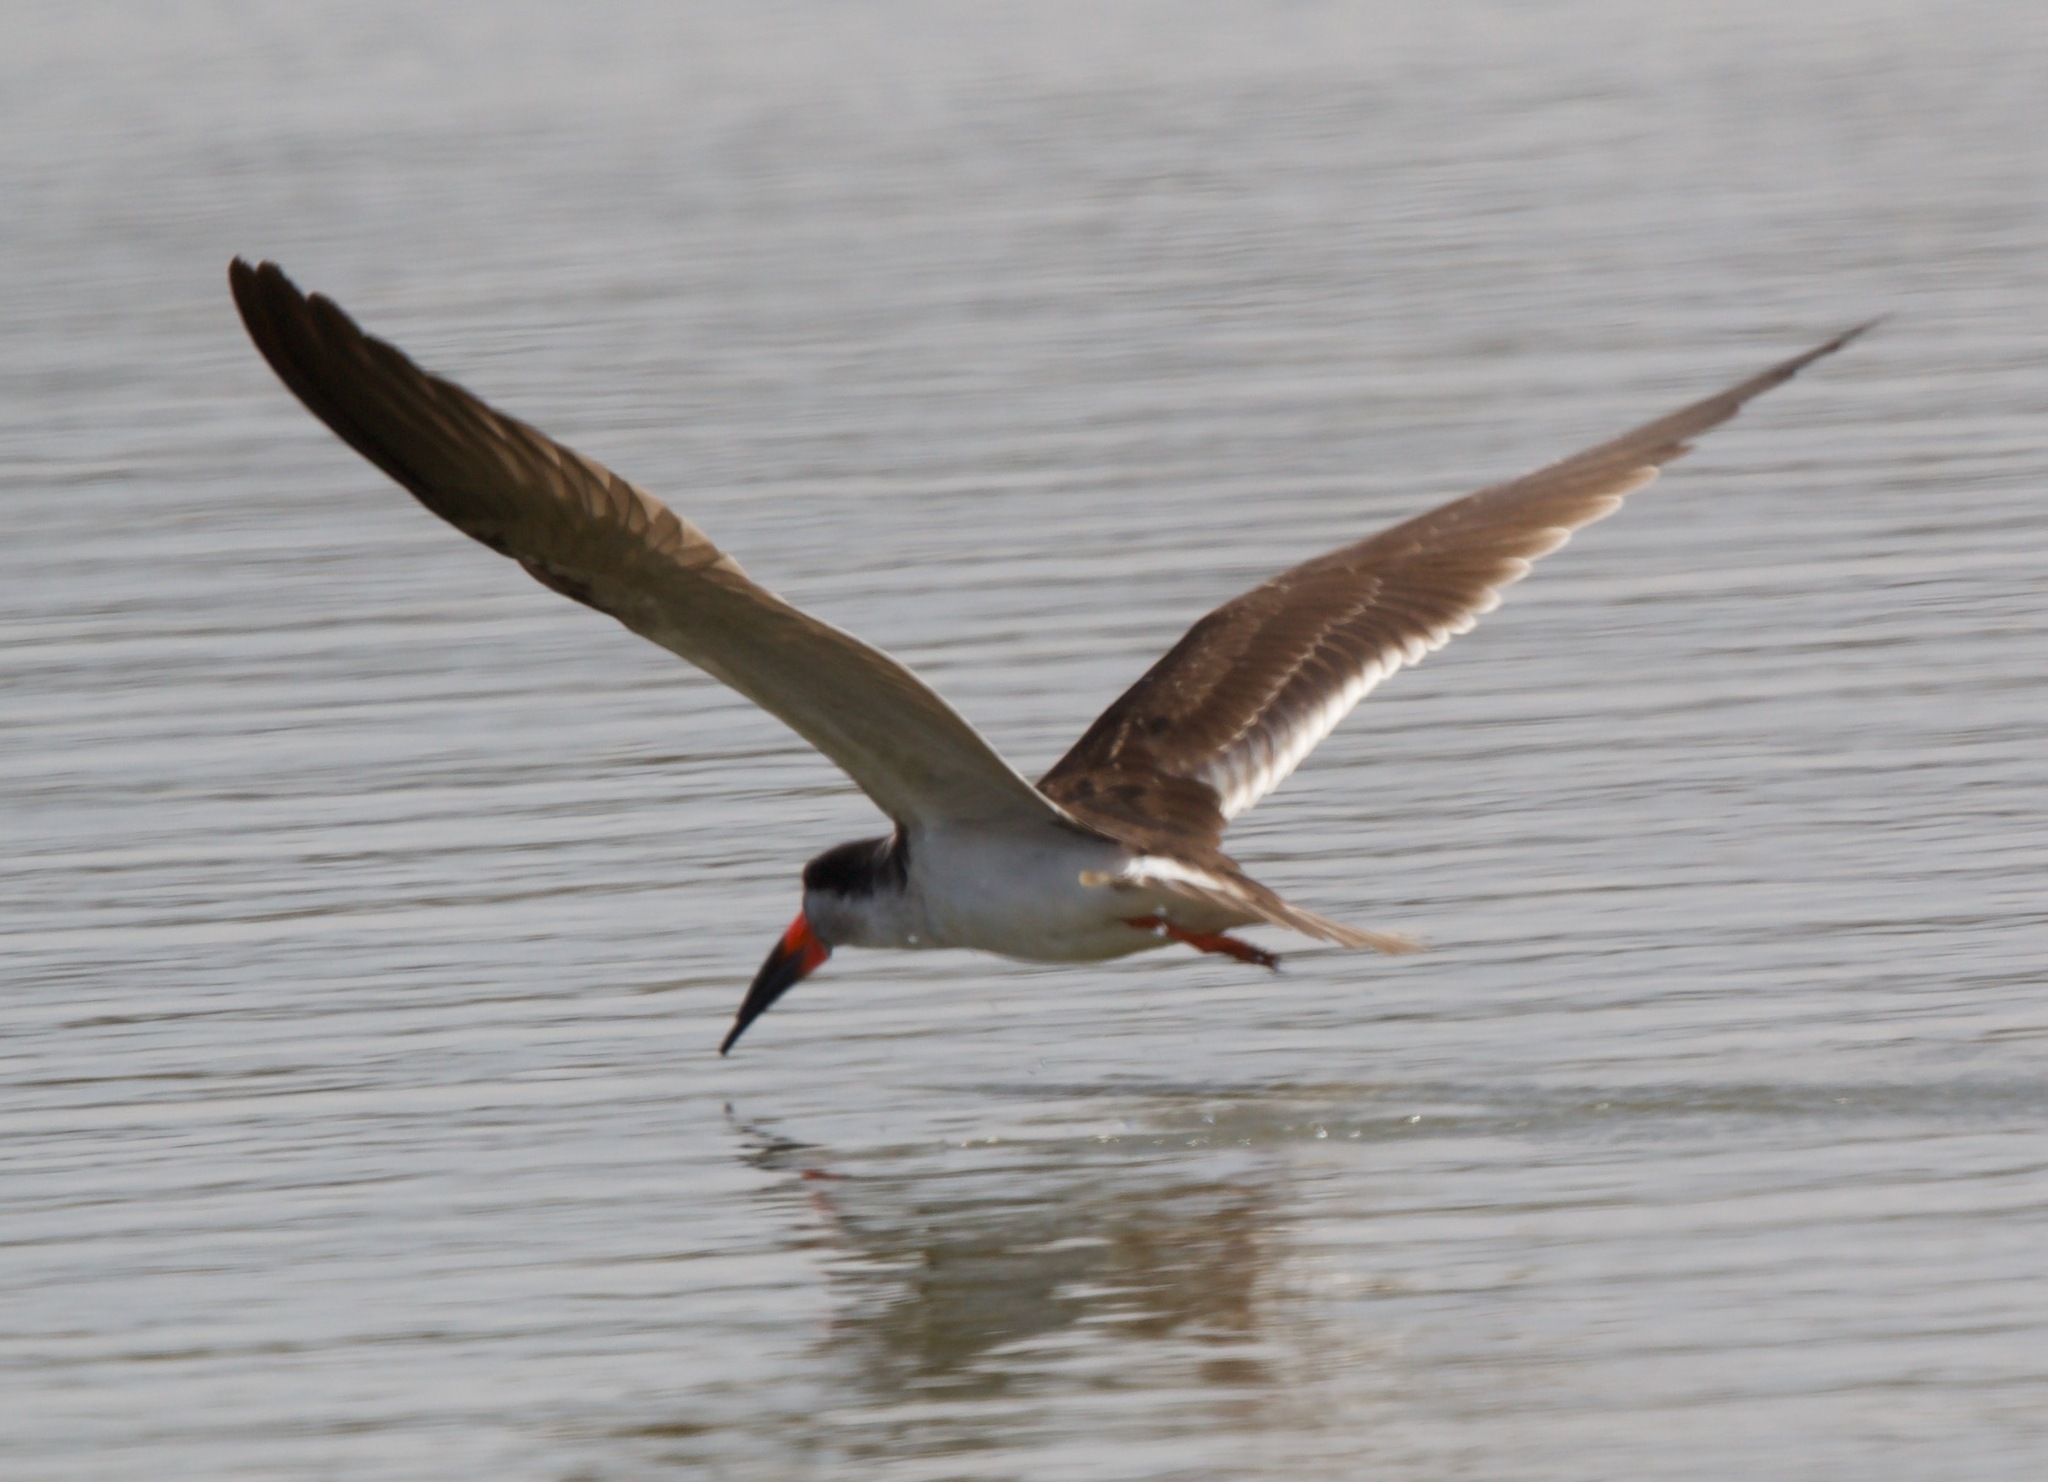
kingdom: Animalia
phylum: Chordata
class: Aves
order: Charadriiformes
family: Laridae
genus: Rynchops
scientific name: Rynchops niger
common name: Black skimmer
